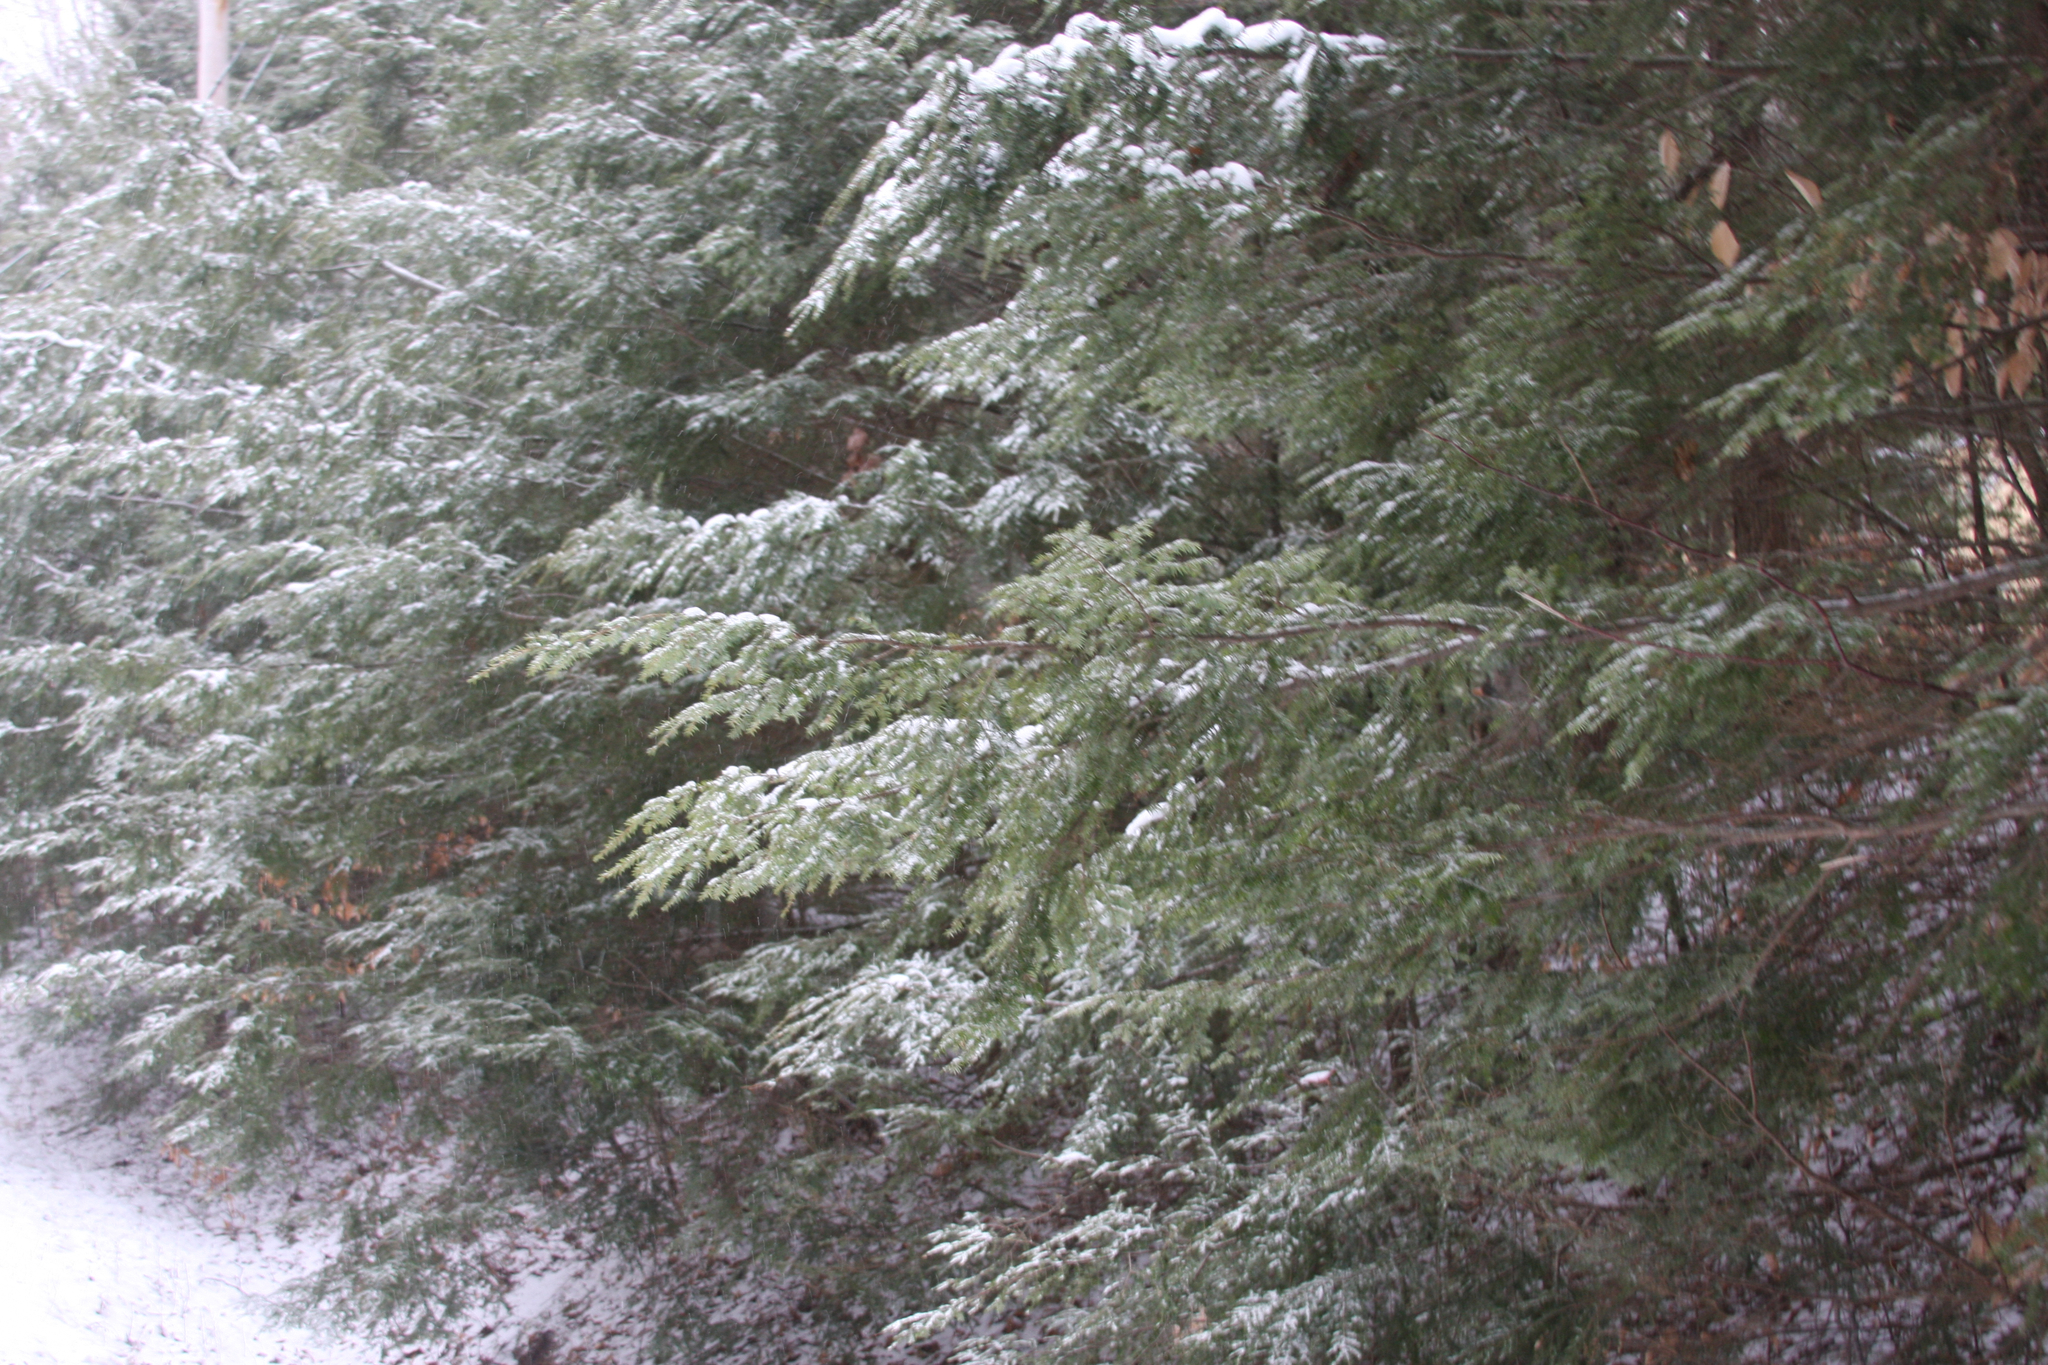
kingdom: Plantae
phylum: Tracheophyta
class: Pinopsida
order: Pinales
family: Pinaceae
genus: Tsuga
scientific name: Tsuga canadensis
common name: Eastern hemlock
